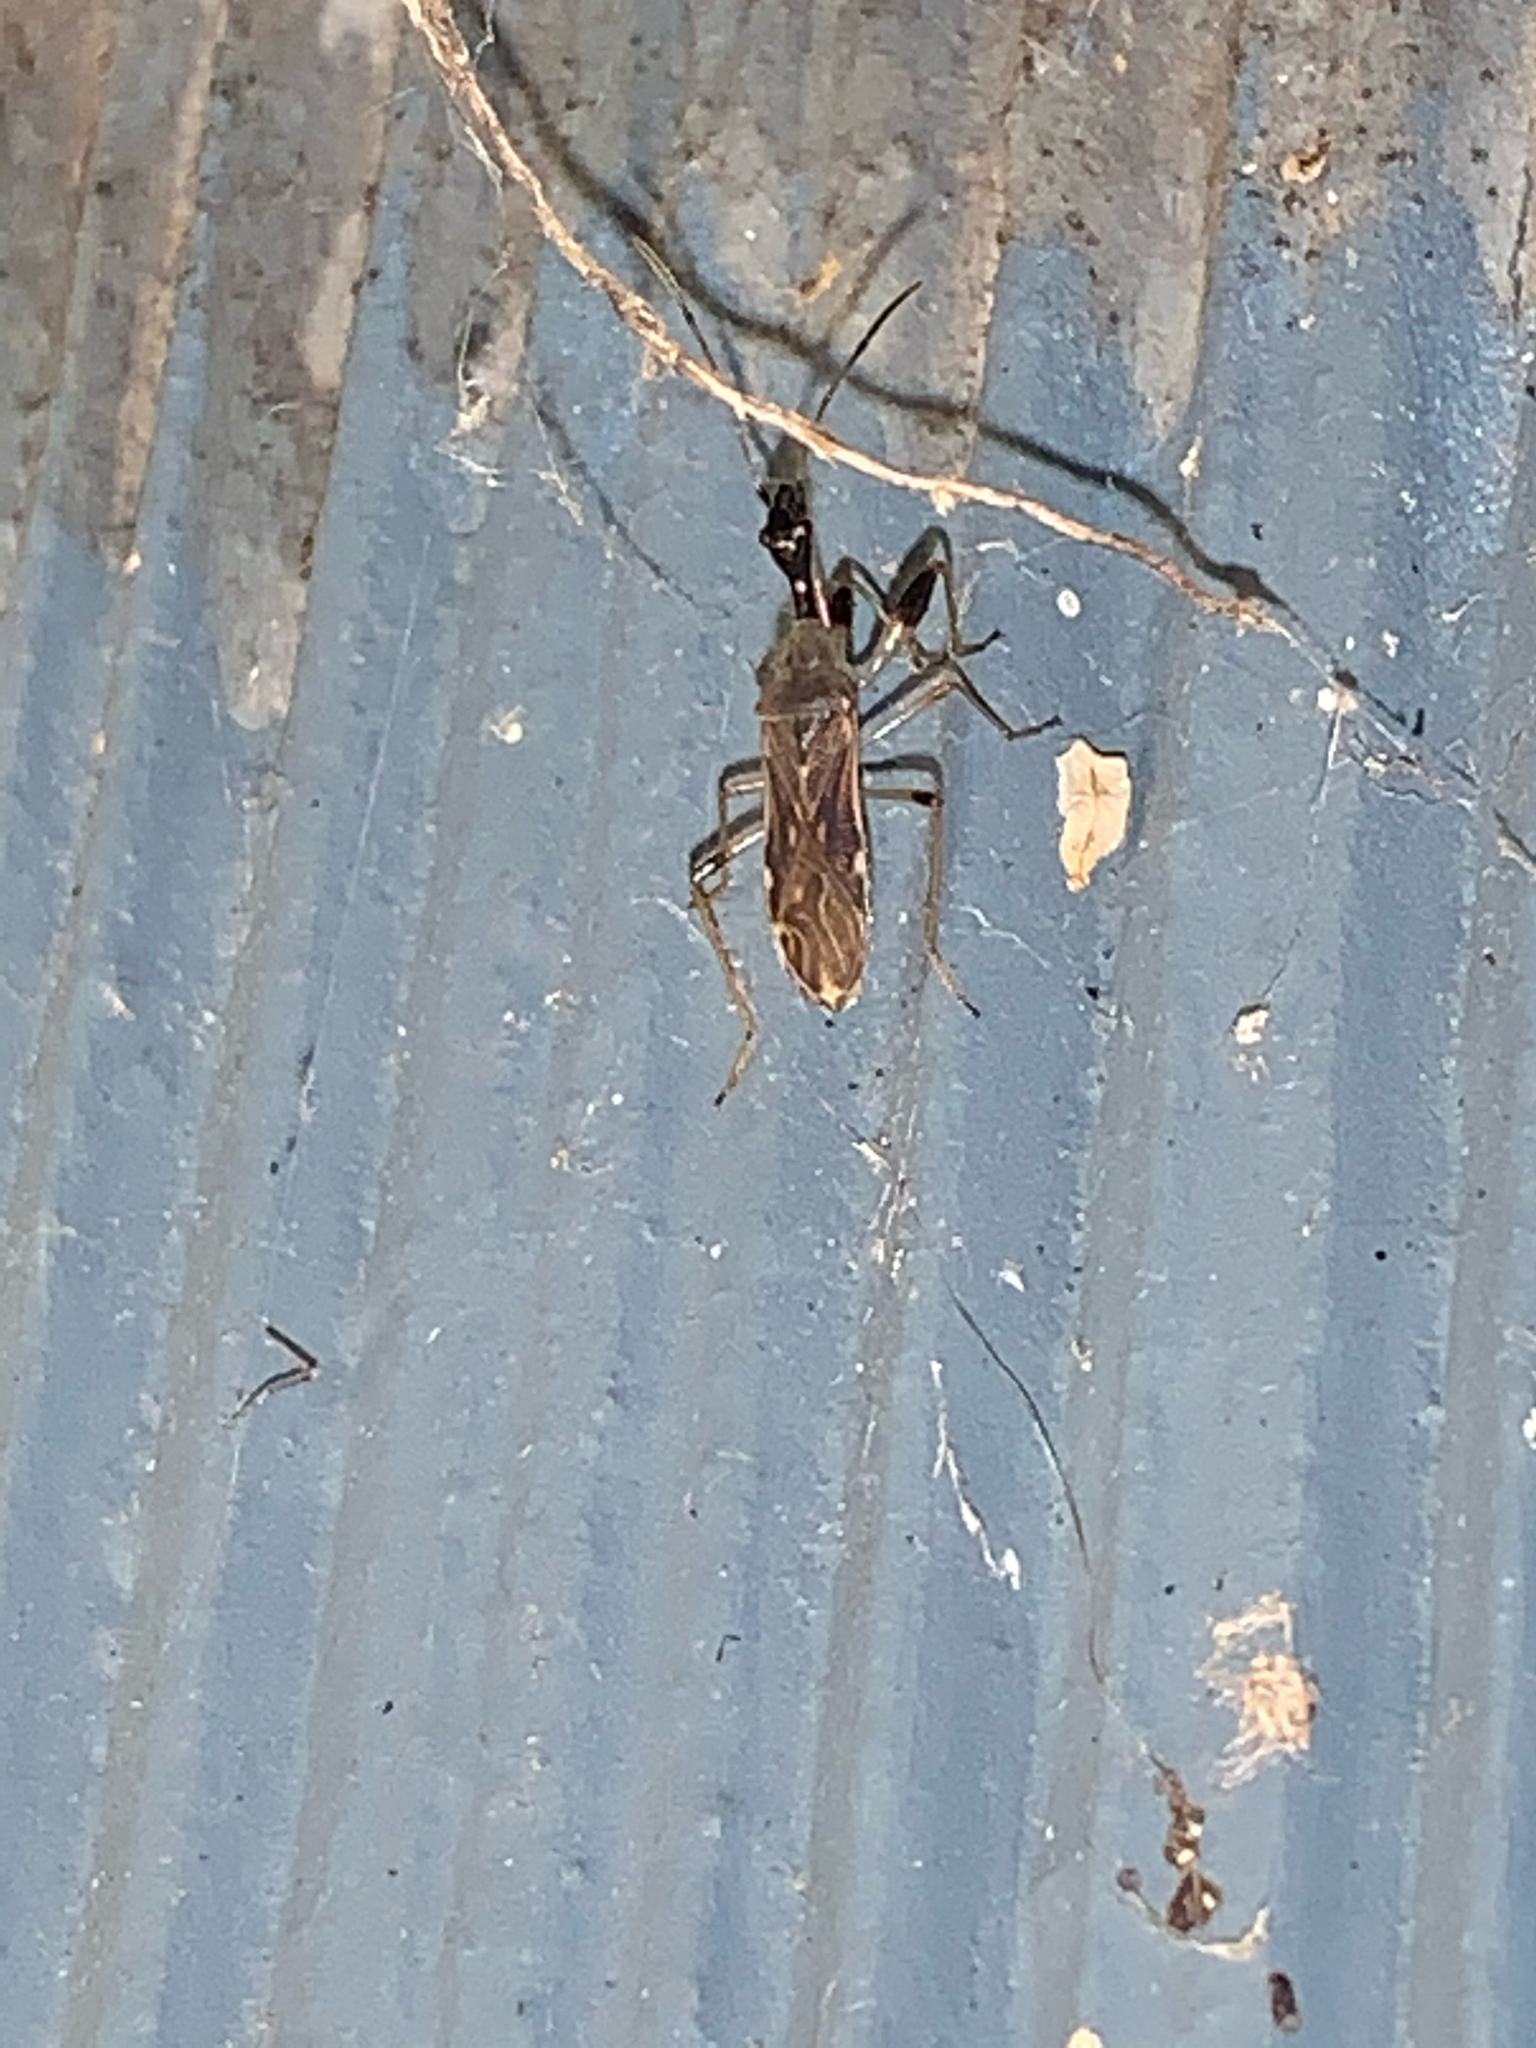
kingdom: Animalia
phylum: Arthropoda
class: Insecta
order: Hemiptera
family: Rhyparochromidae
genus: Myodocha
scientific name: Myodocha serripes
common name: Long-necked seed bug
